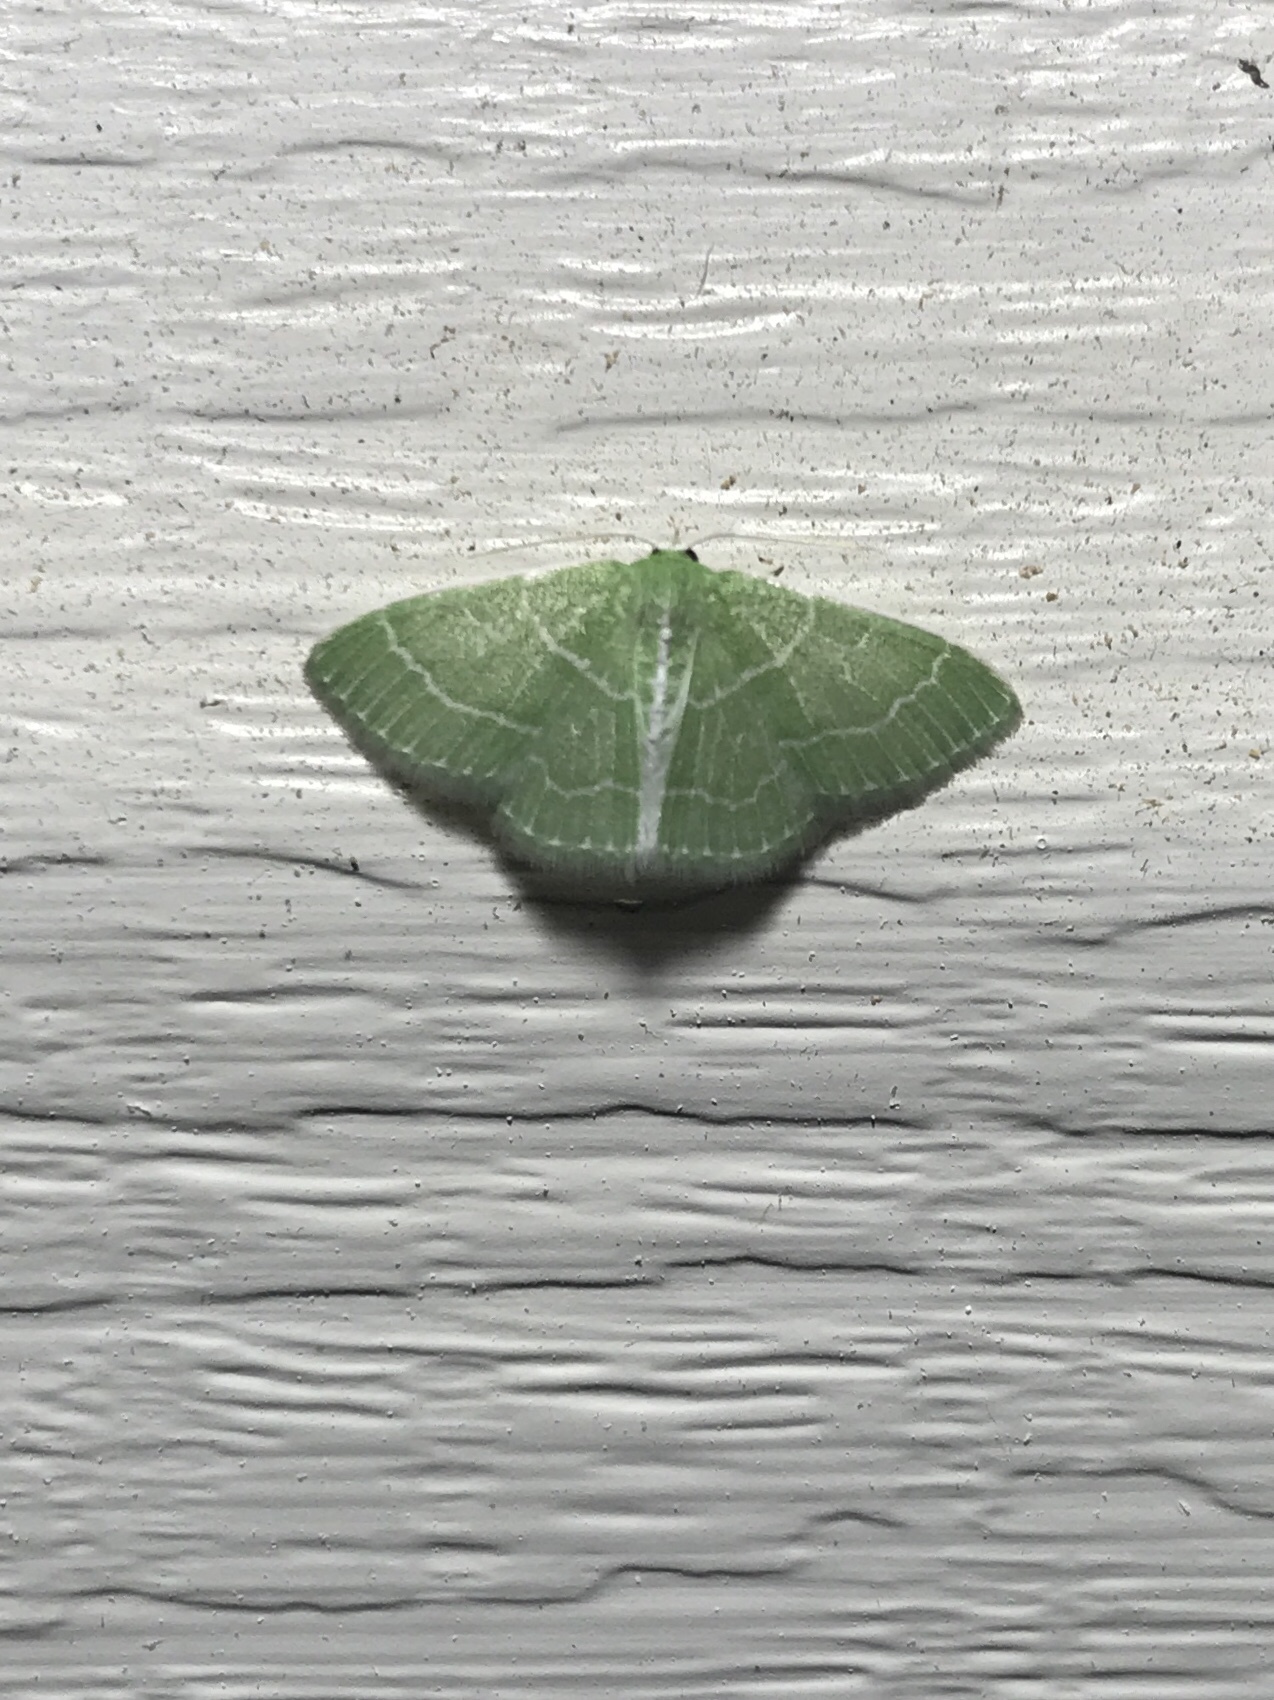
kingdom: Animalia
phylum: Arthropoda
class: Insecta
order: Lepidoptera
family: Geometridae
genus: Synchlora
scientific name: Synchlora aerata
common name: Wavy-lined emerald
